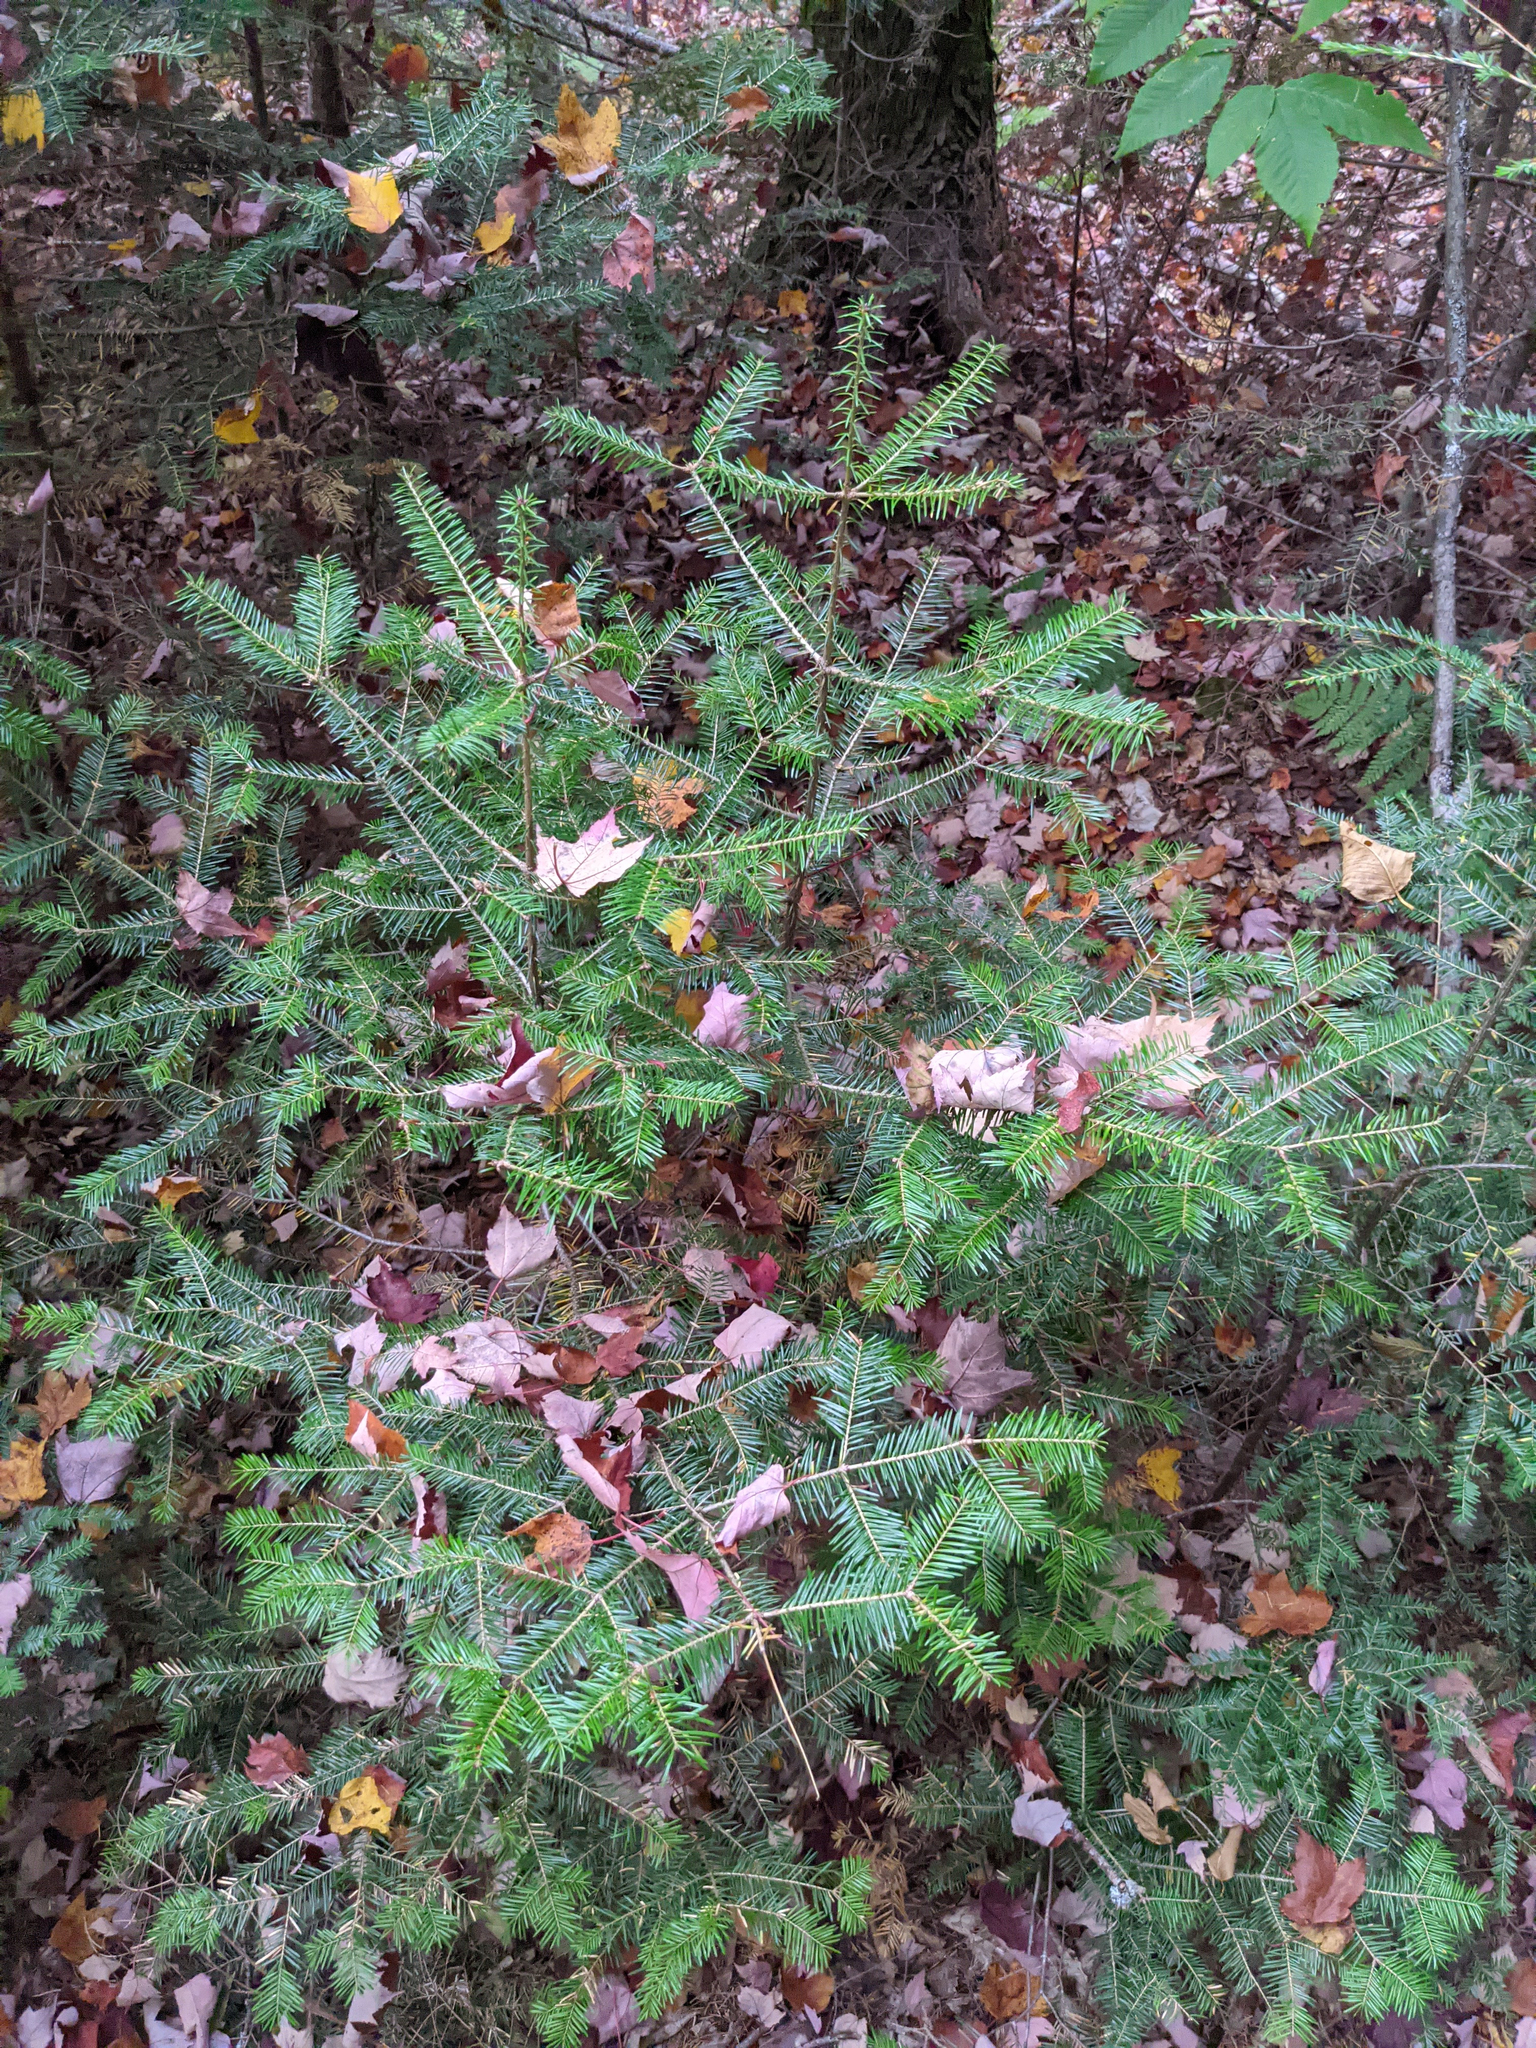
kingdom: Plantae
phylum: Tracheophyta
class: Pinopsida
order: Pinales
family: Pinaceae
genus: Abies
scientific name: Abies balsamea
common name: Balsam fir
